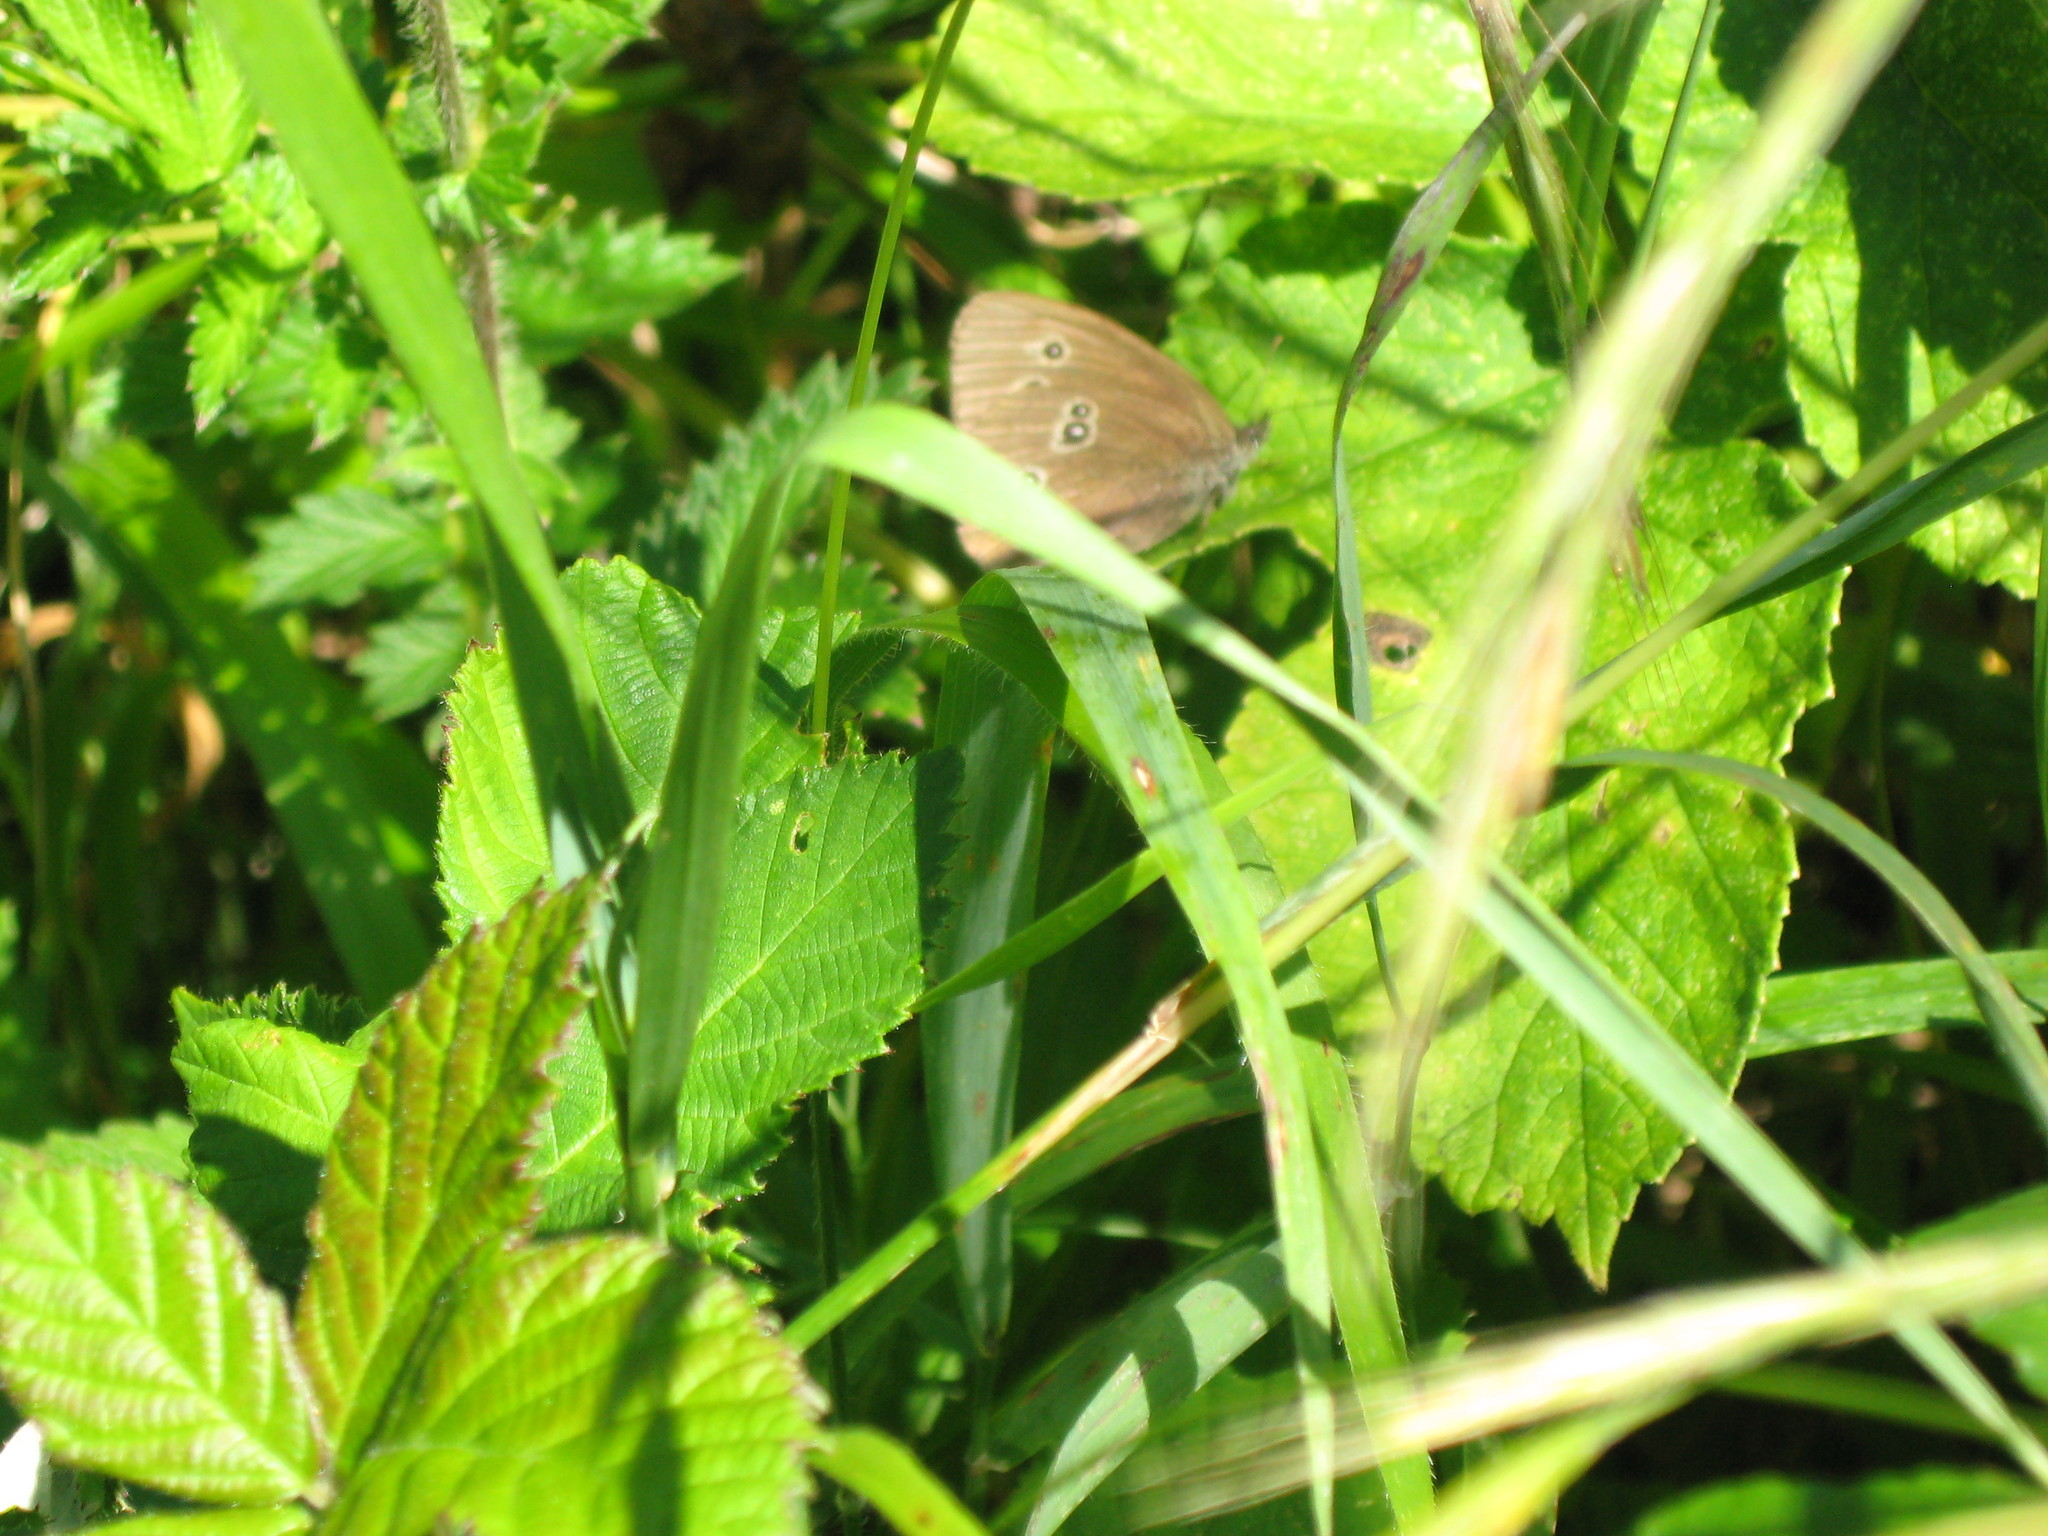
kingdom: Animalia
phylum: Arthropoda
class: Insecta
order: Lepidoptera
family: Nymphalidae
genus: Aphantopus
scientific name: Aphantopus hyperantus
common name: Ringlet
